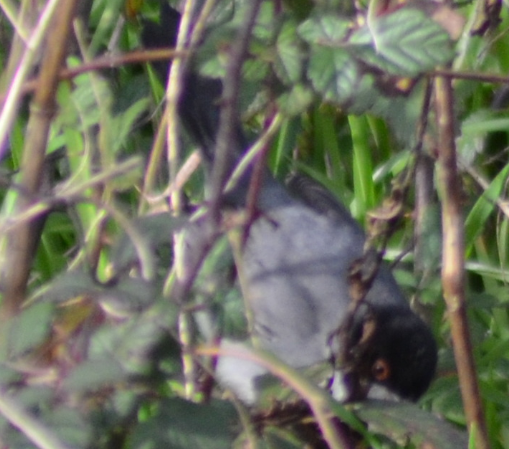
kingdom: Animalia
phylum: Chordata
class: Aves
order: Passeriformes
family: Sylviidae
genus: Curruca
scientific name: Curruca melanocephala
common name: Sardinian warbler
